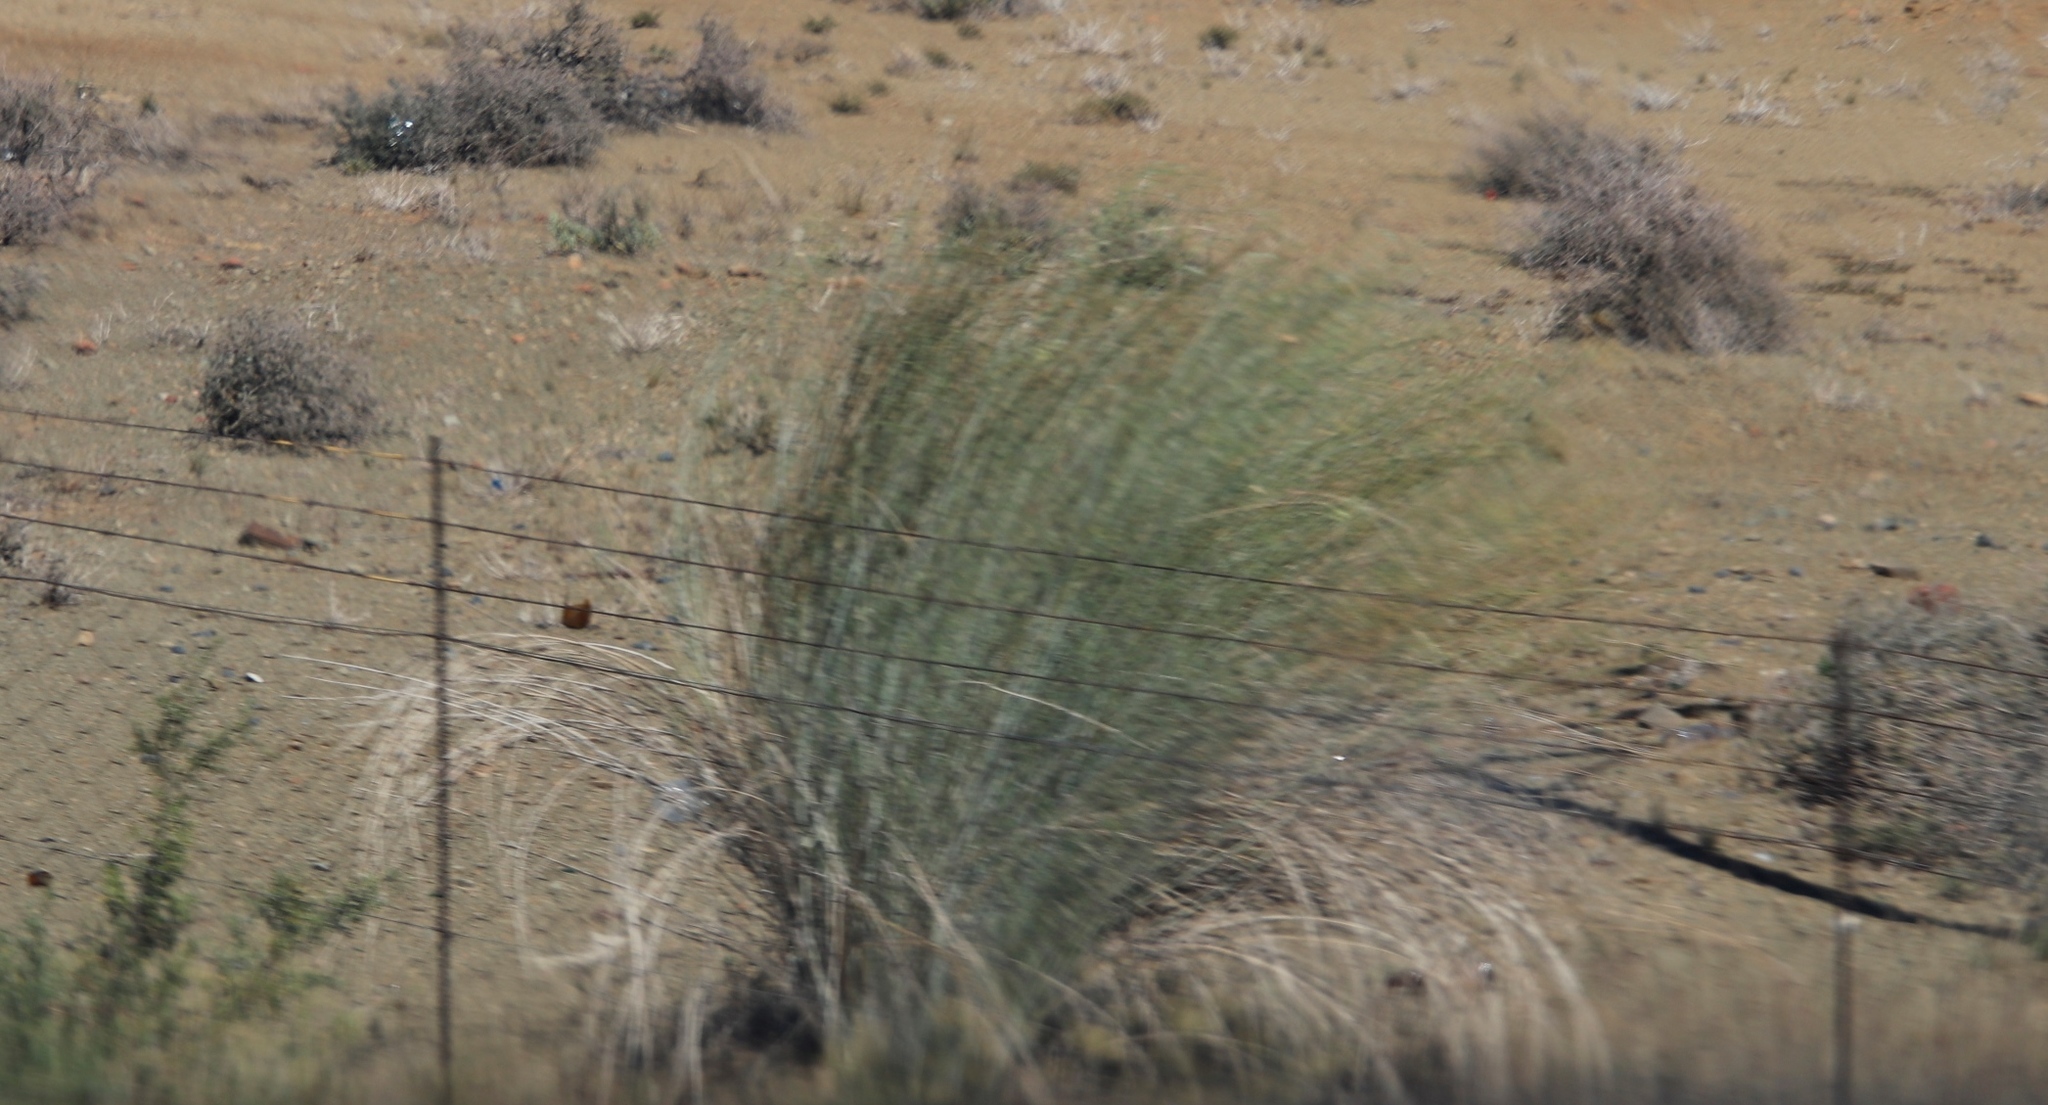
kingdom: Plantae
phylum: Tracheophyta
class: Magnoliopsida
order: Gentianales
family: Apocynaceae
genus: Gomphocarpus
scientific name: Gomphocarpus filiformis
